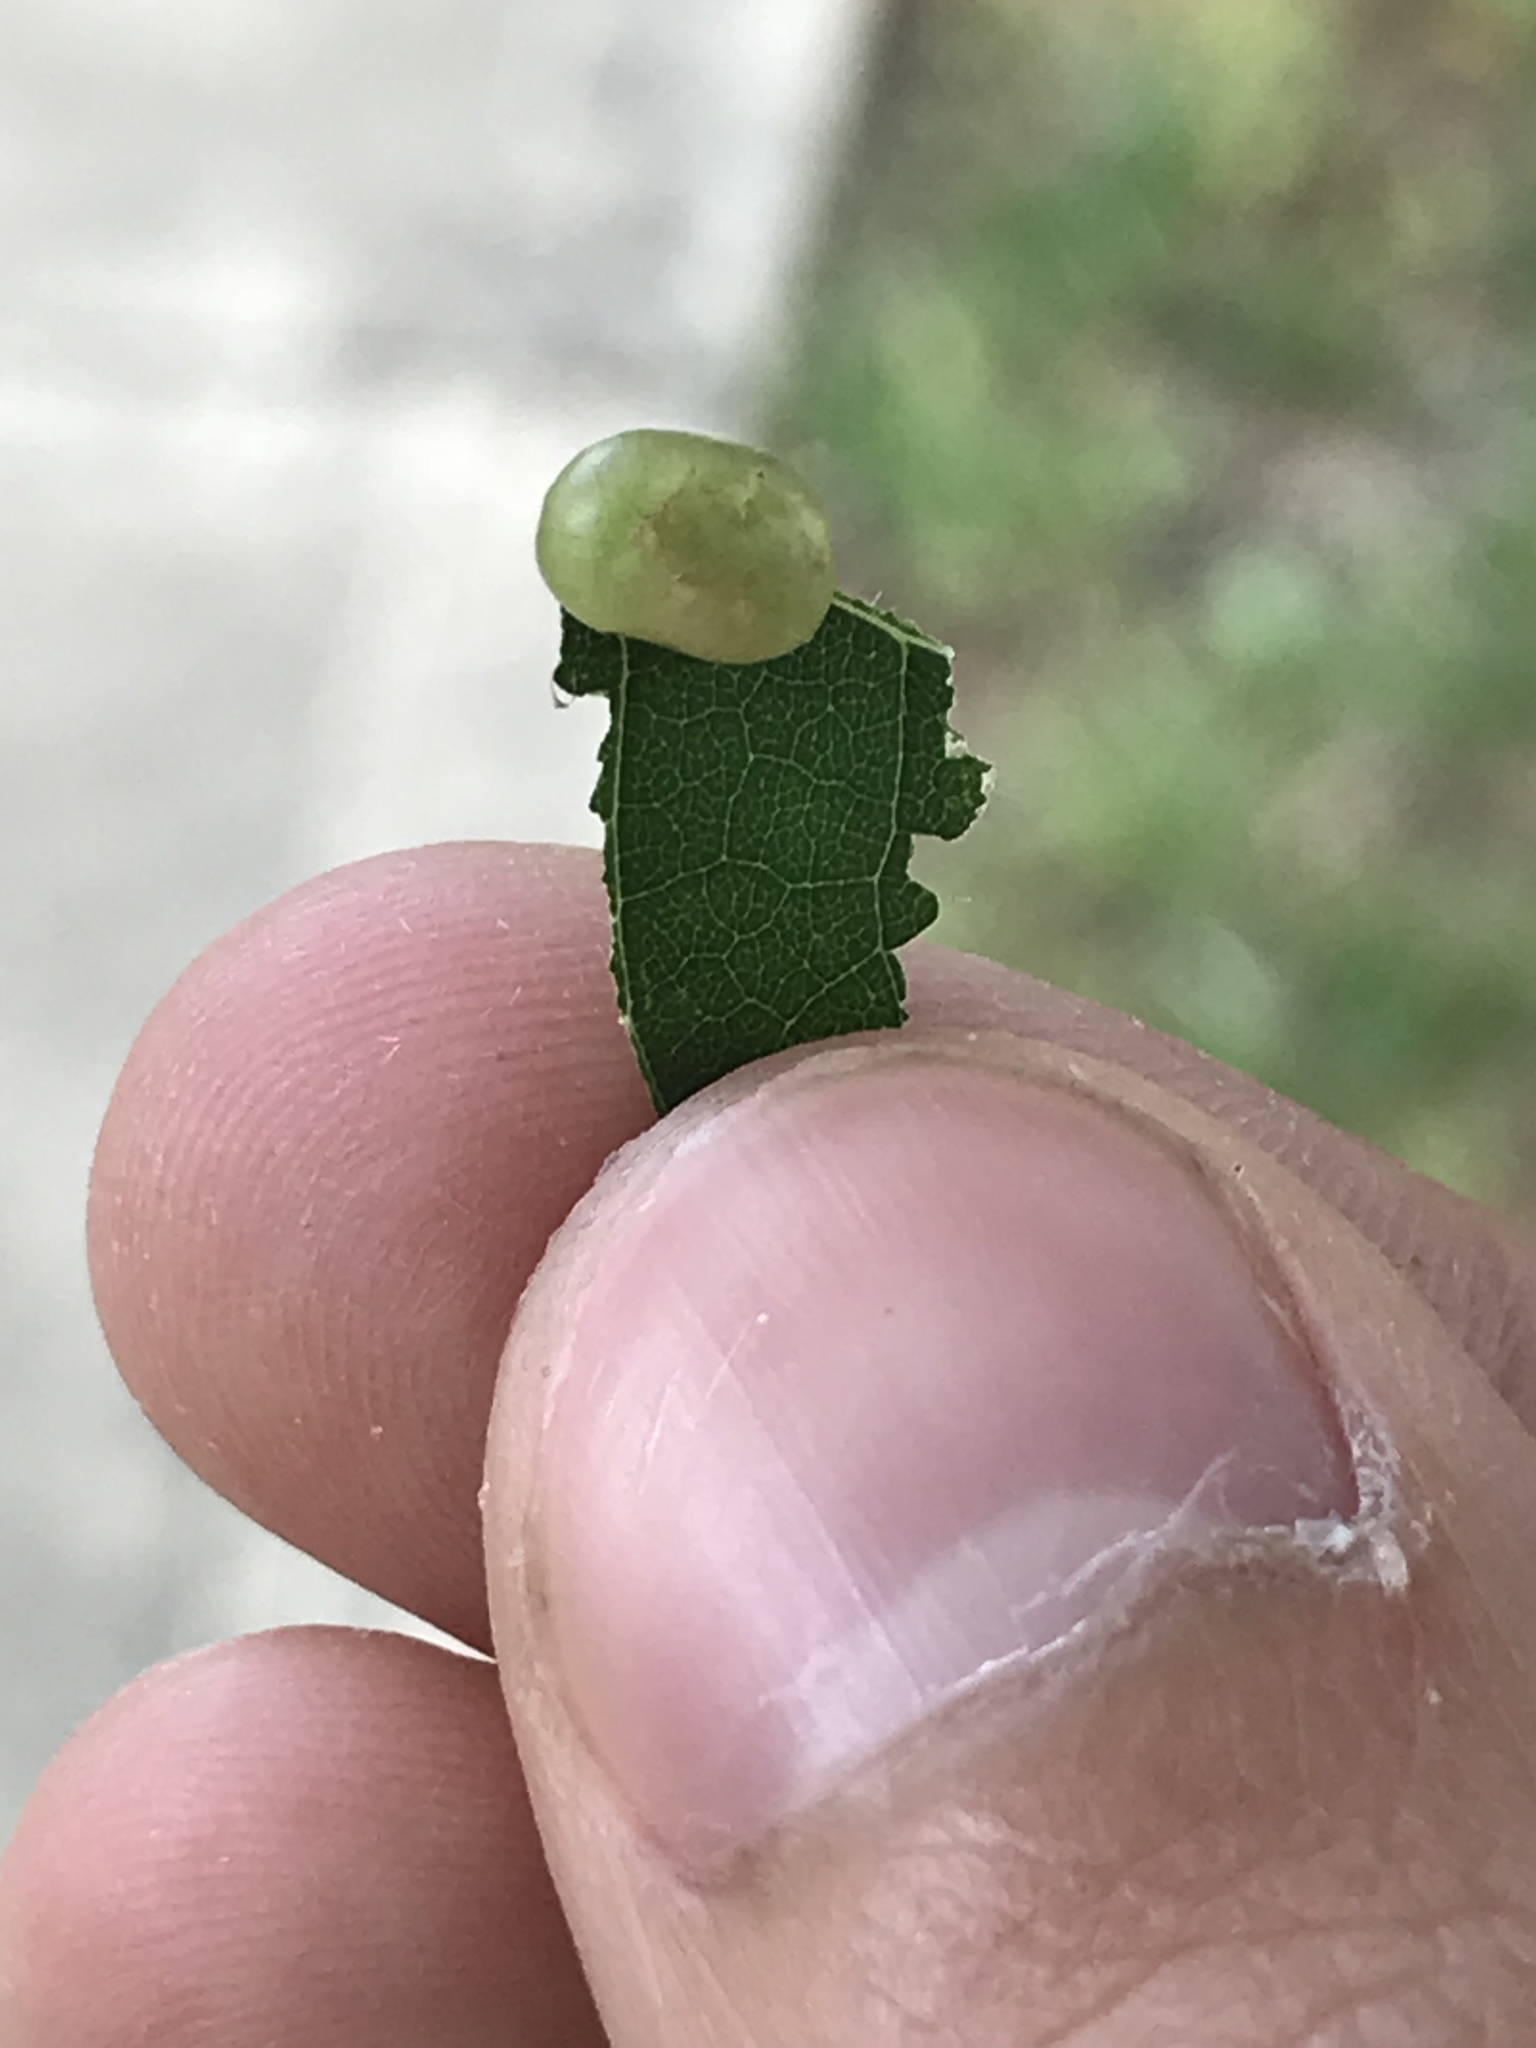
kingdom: Animalia
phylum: Arthropoda
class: Insecta
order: Diptera
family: Cecidomyiidae
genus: Dasineura
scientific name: Dasineura pellex
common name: Ash bullet gall midge
